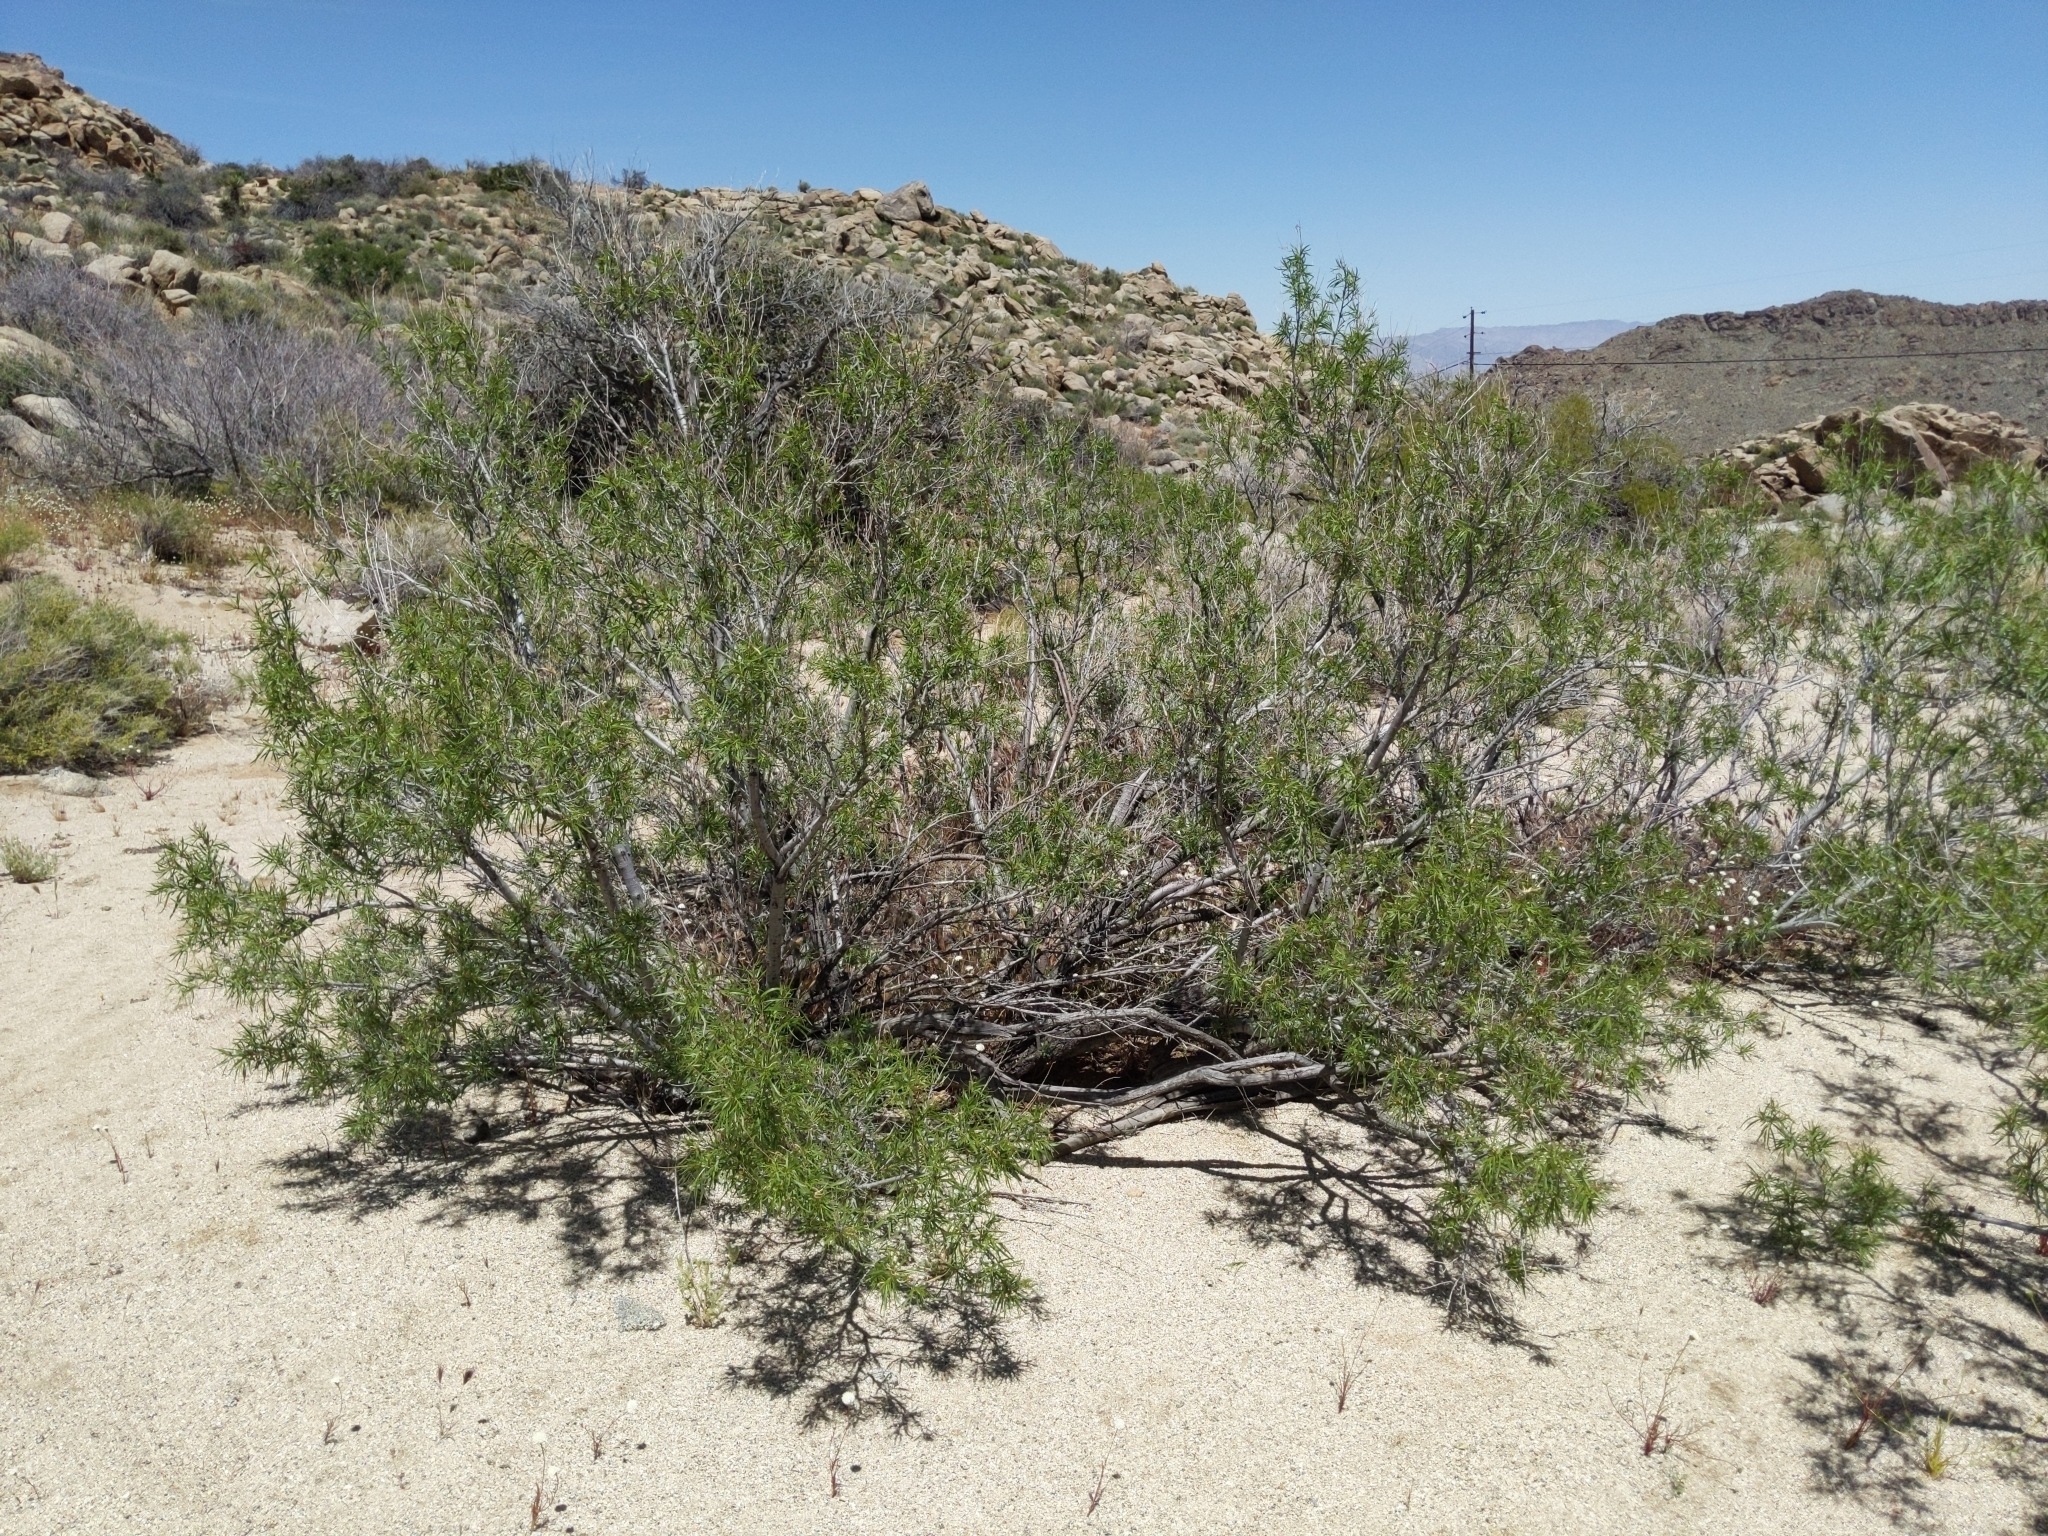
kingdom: Plantae
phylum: Tracheophyta
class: Magnoliopsida
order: Lamiales
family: Bignoniaceae
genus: Chilopsis
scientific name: Chilopsis linearis
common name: Desert-willow
